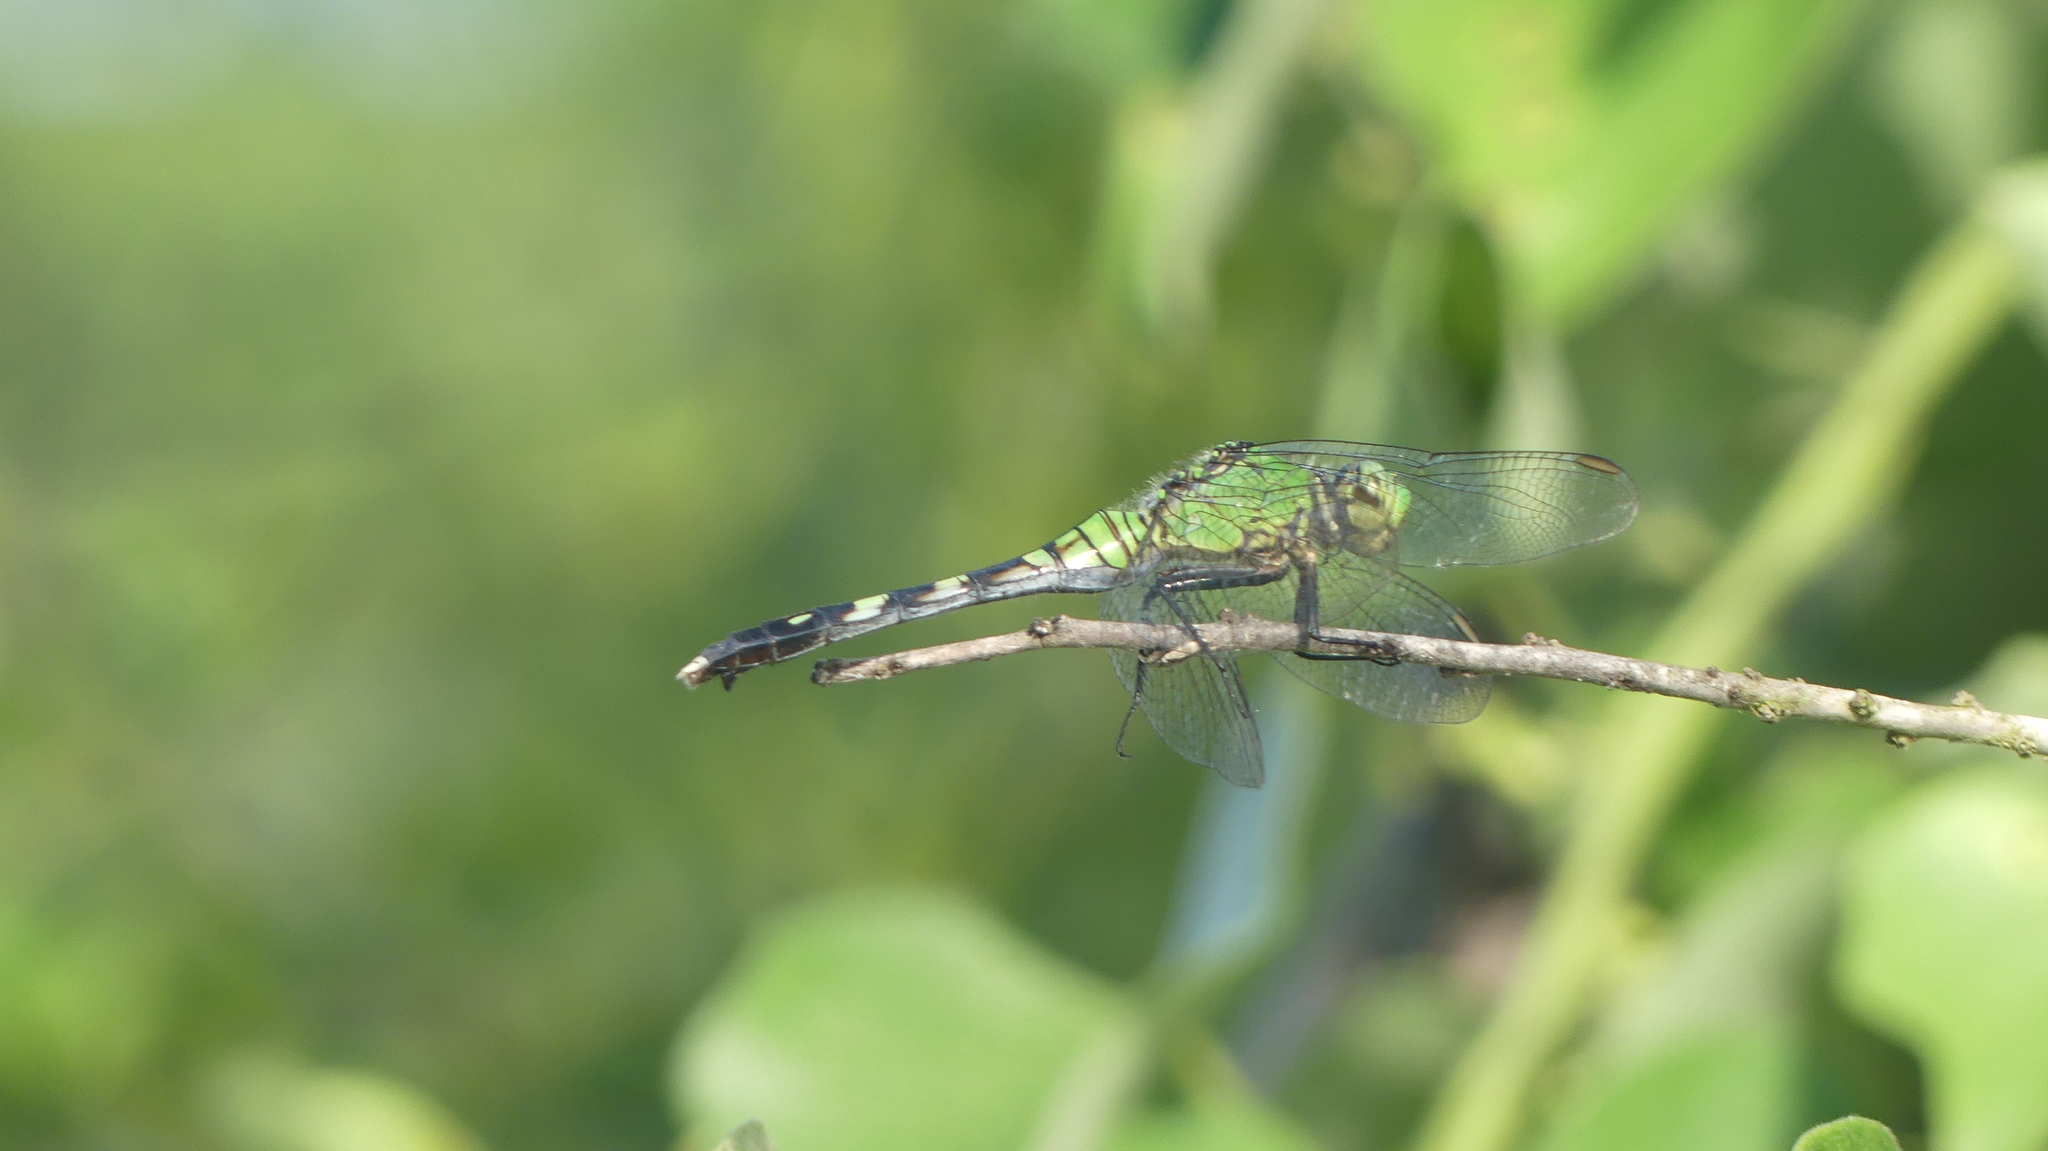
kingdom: Animalia
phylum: Arthropoda
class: Insecta
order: Odonata
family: Libellulidae
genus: Erythemis
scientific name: Erythemis simplicicollis
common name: Eastern pondhawk
